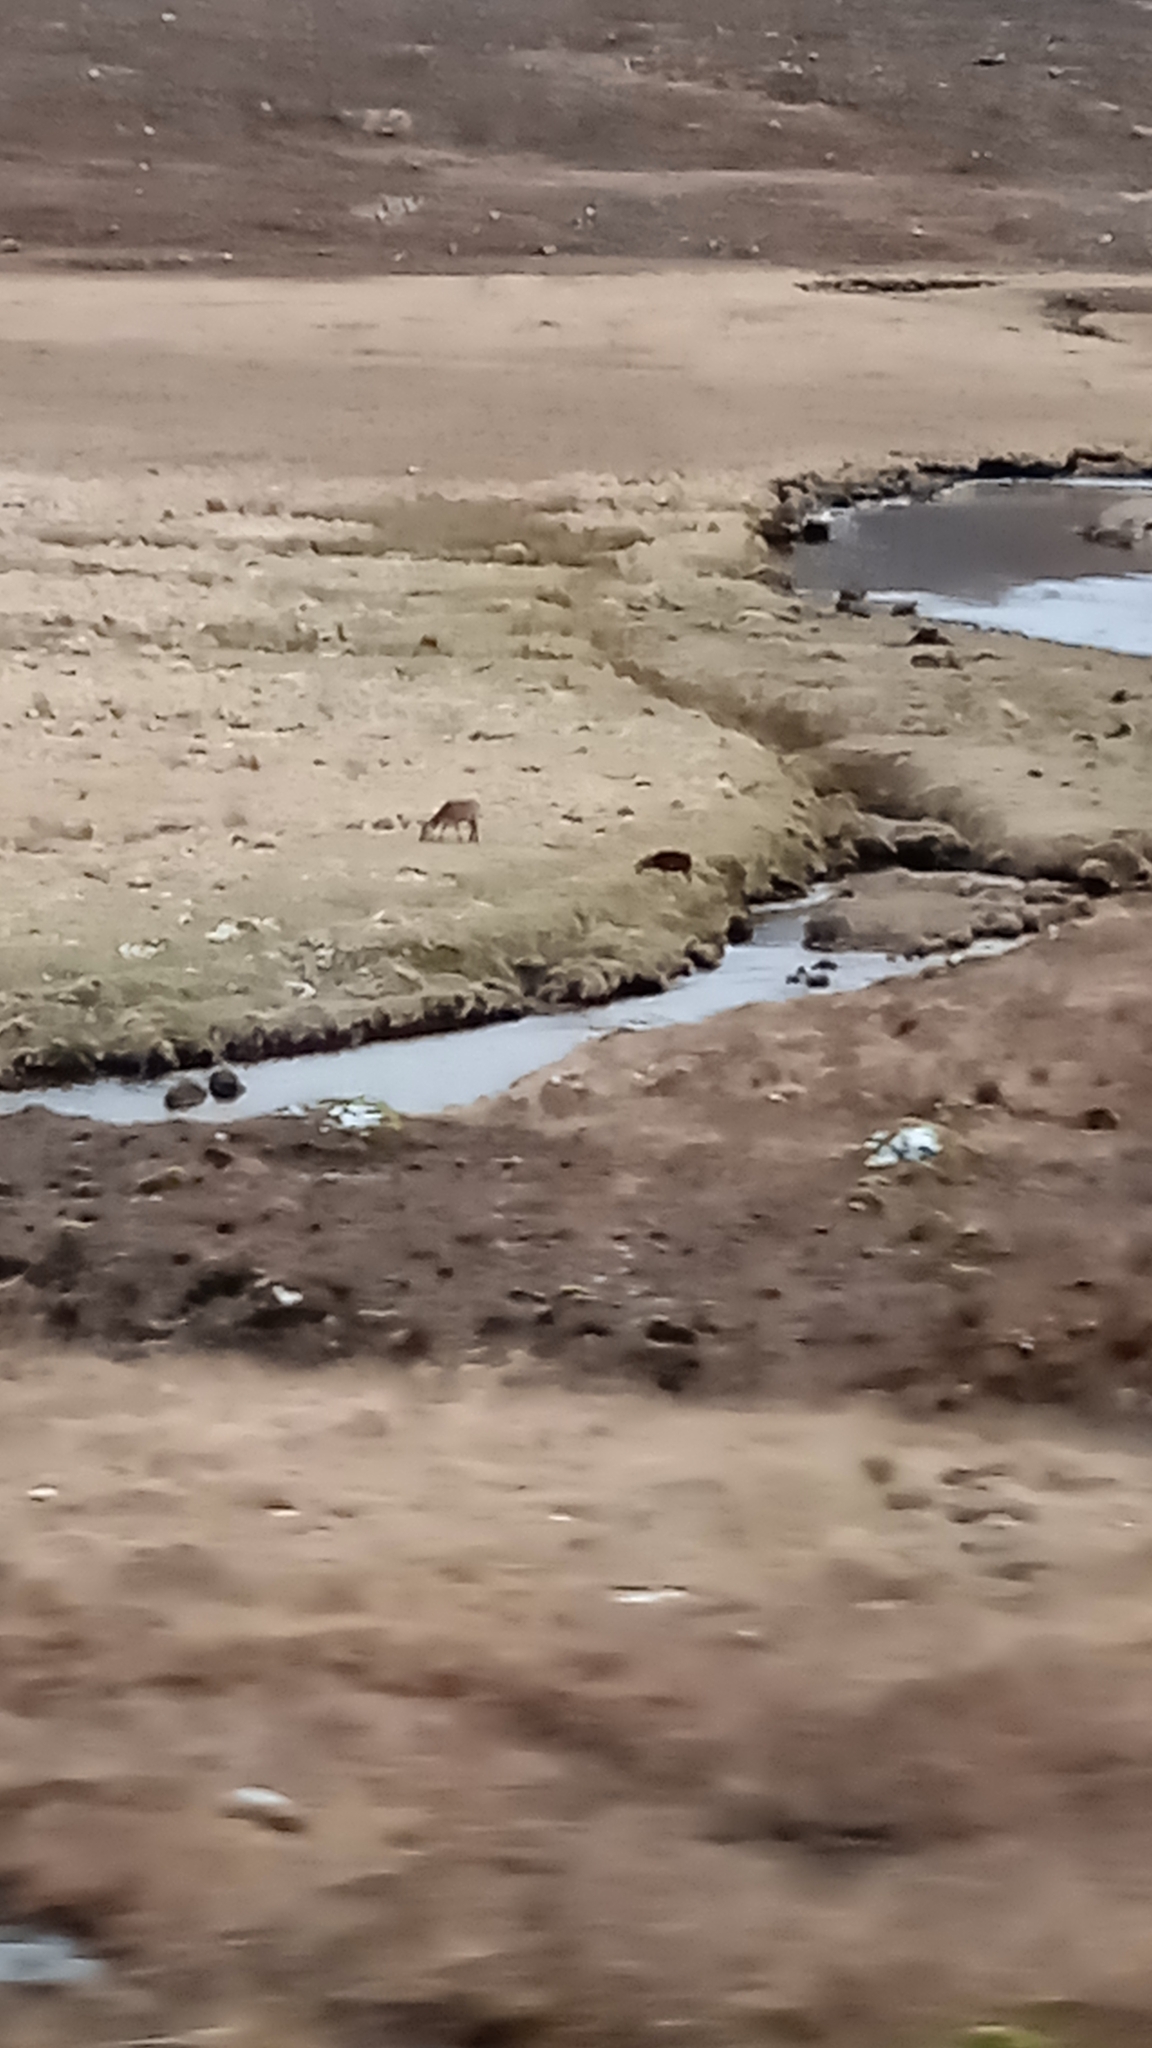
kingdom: Animalia
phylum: Chordata
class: Mammalia
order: Artiodactyla
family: Cervidae
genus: Cervus
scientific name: Cervus elaphus
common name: Red deer
